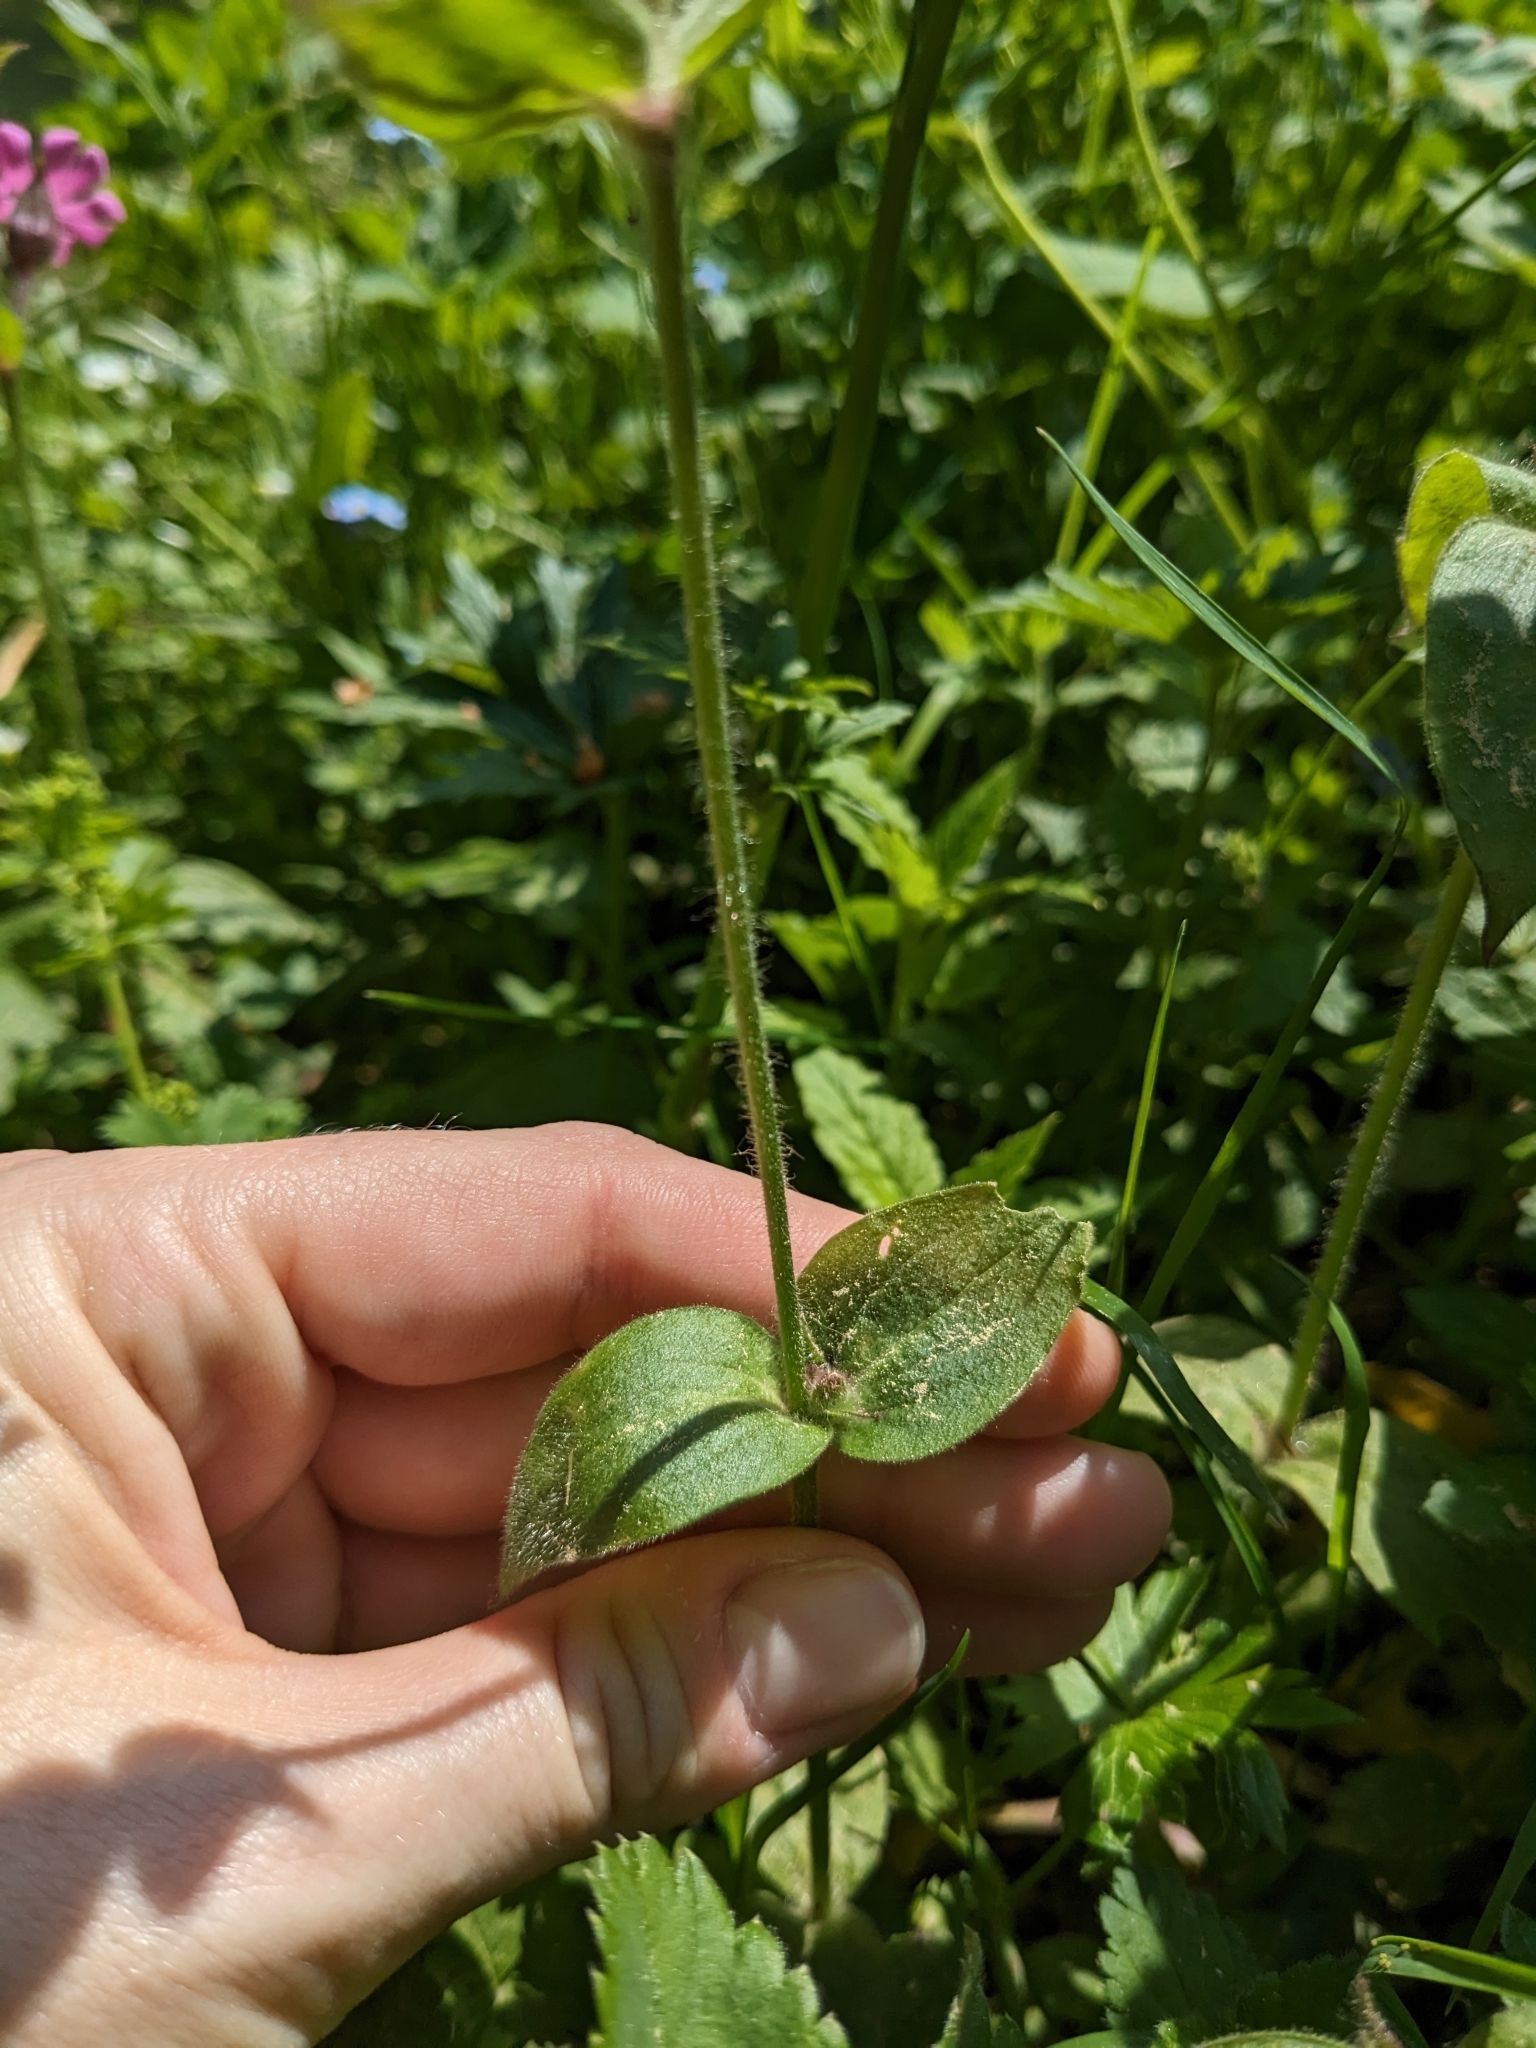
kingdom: Plantae
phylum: Tracheophyta
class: Magnoliopsida
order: Caryophyllales
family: Caryophyllaceae
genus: Silene
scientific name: Silene dioica
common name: Red campion
